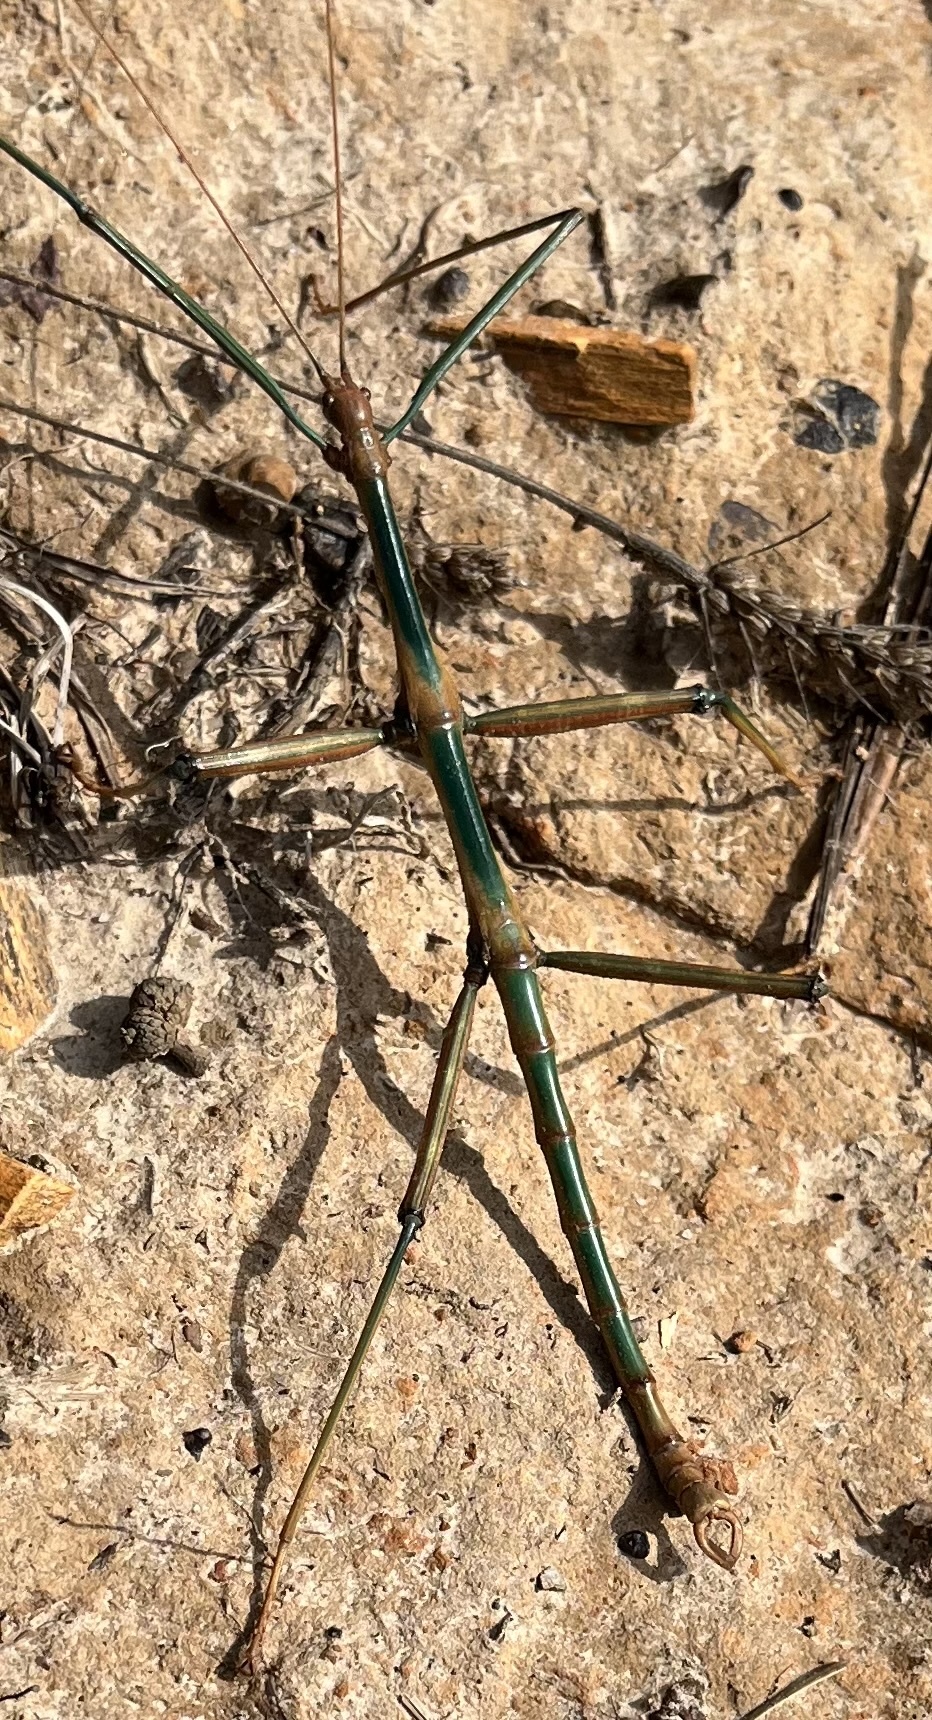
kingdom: Animalia
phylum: Arthropoda
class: Insecta
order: Phasmida
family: Diapheromeridae
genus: Megaphasma
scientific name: Megaphasma denticrus
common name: Giant walkingstick
